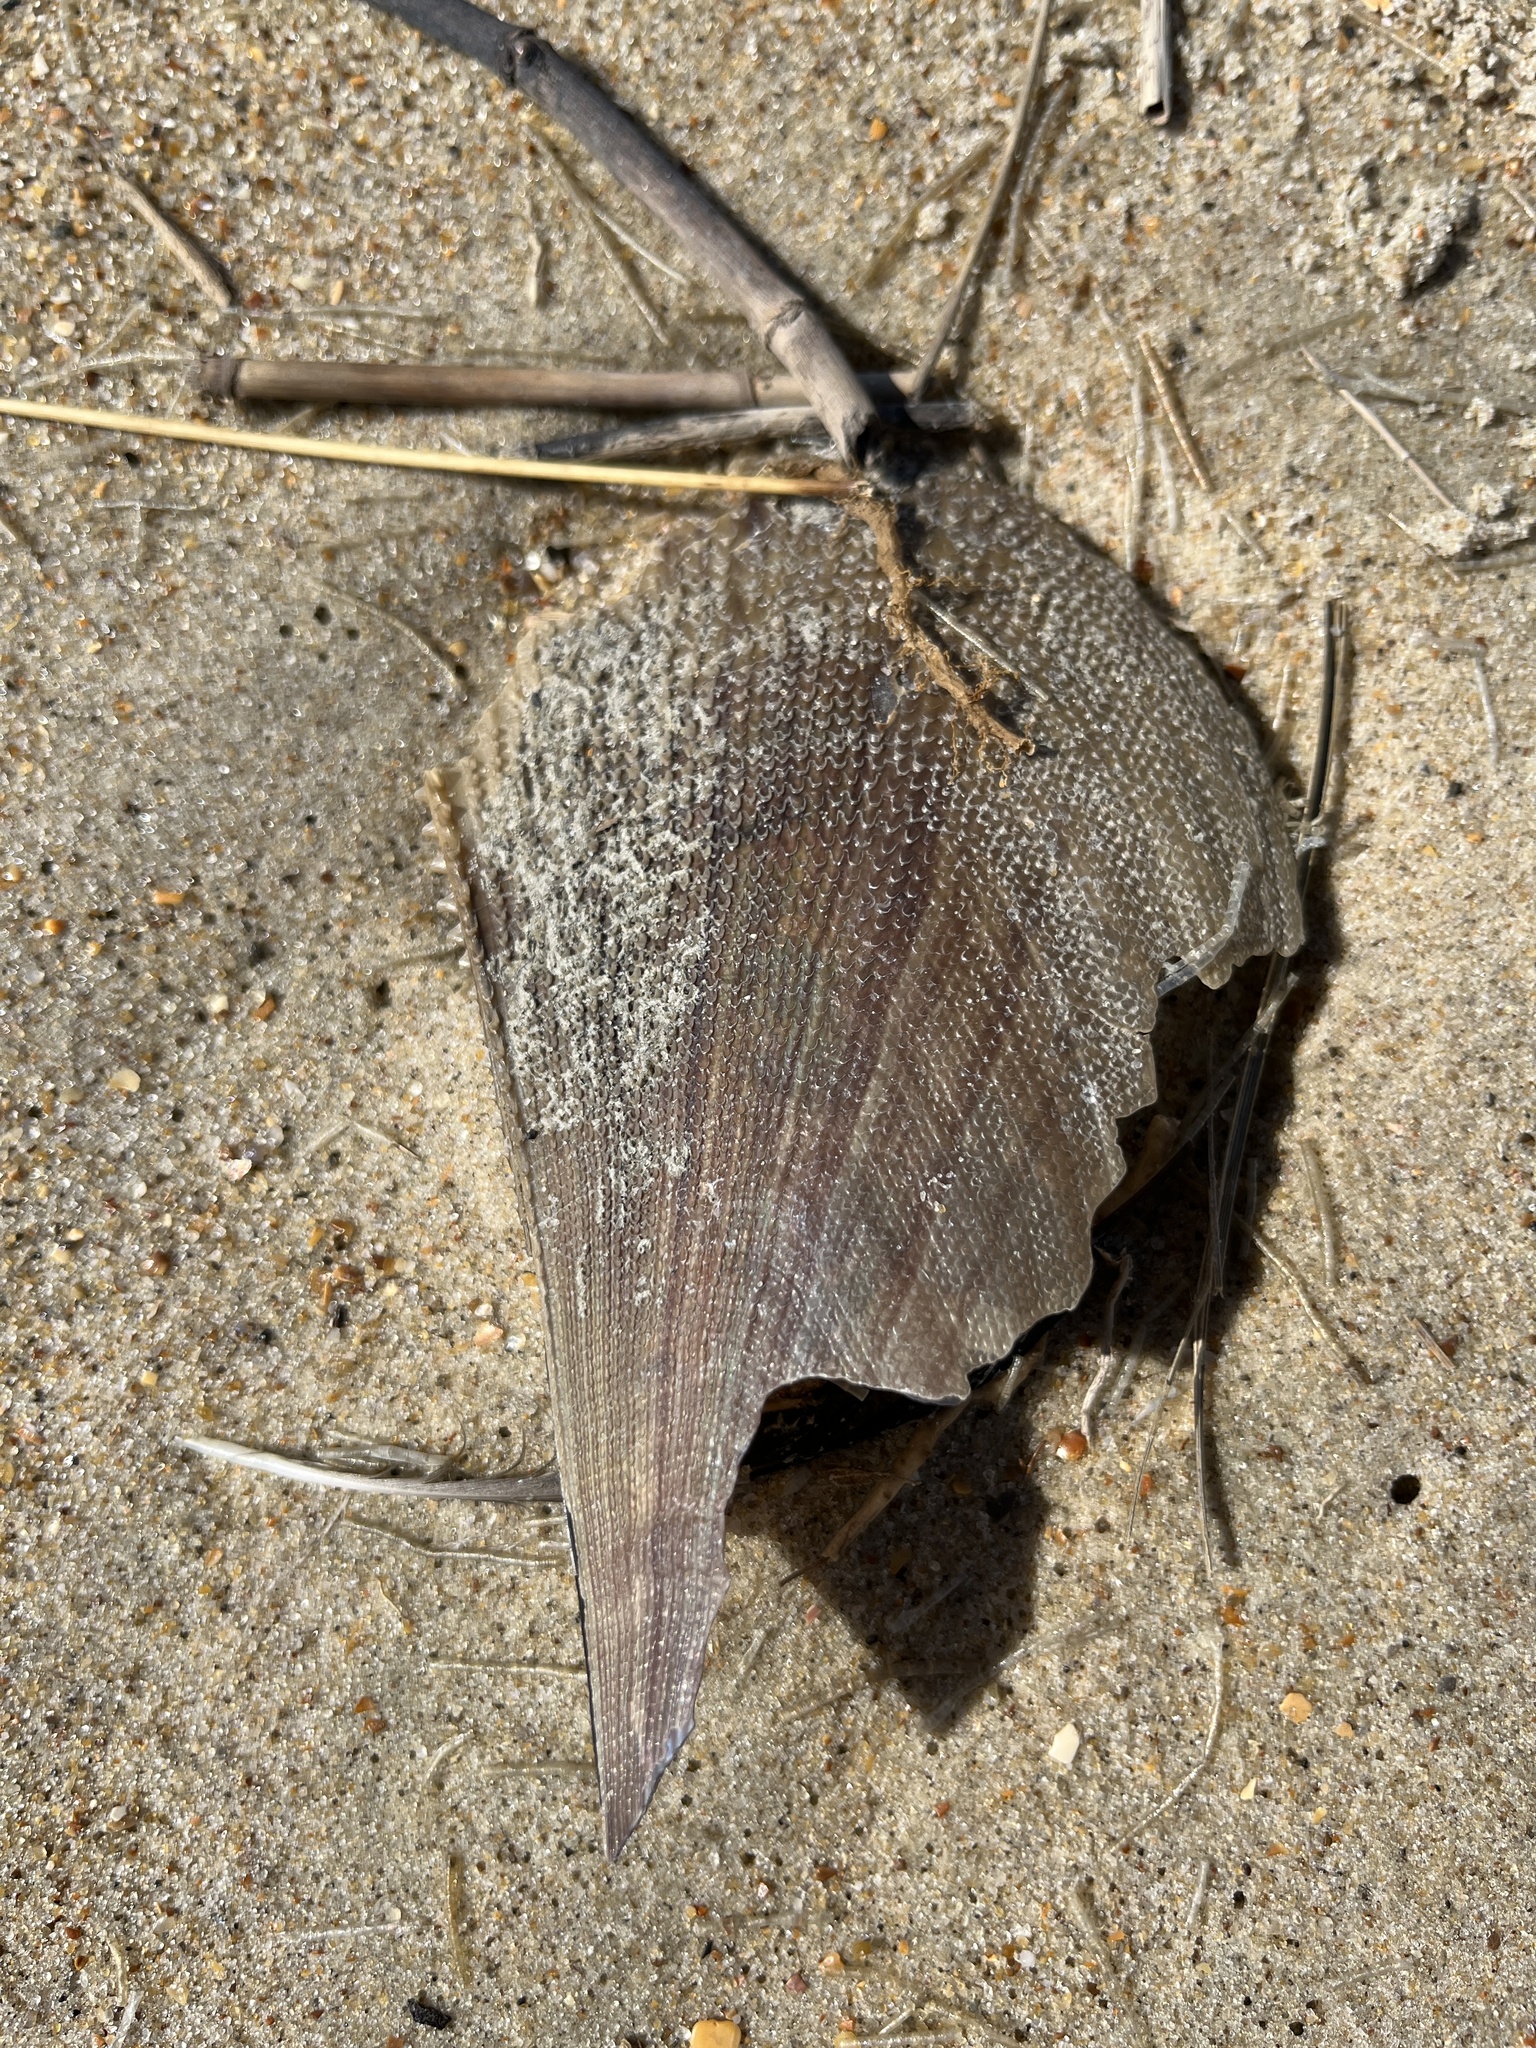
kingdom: Animalia
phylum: Mollusca
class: Bivalvia
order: Ostreida
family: Pinnidae
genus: Atrina
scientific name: Atrina serrata
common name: Saw-toothed penshell
